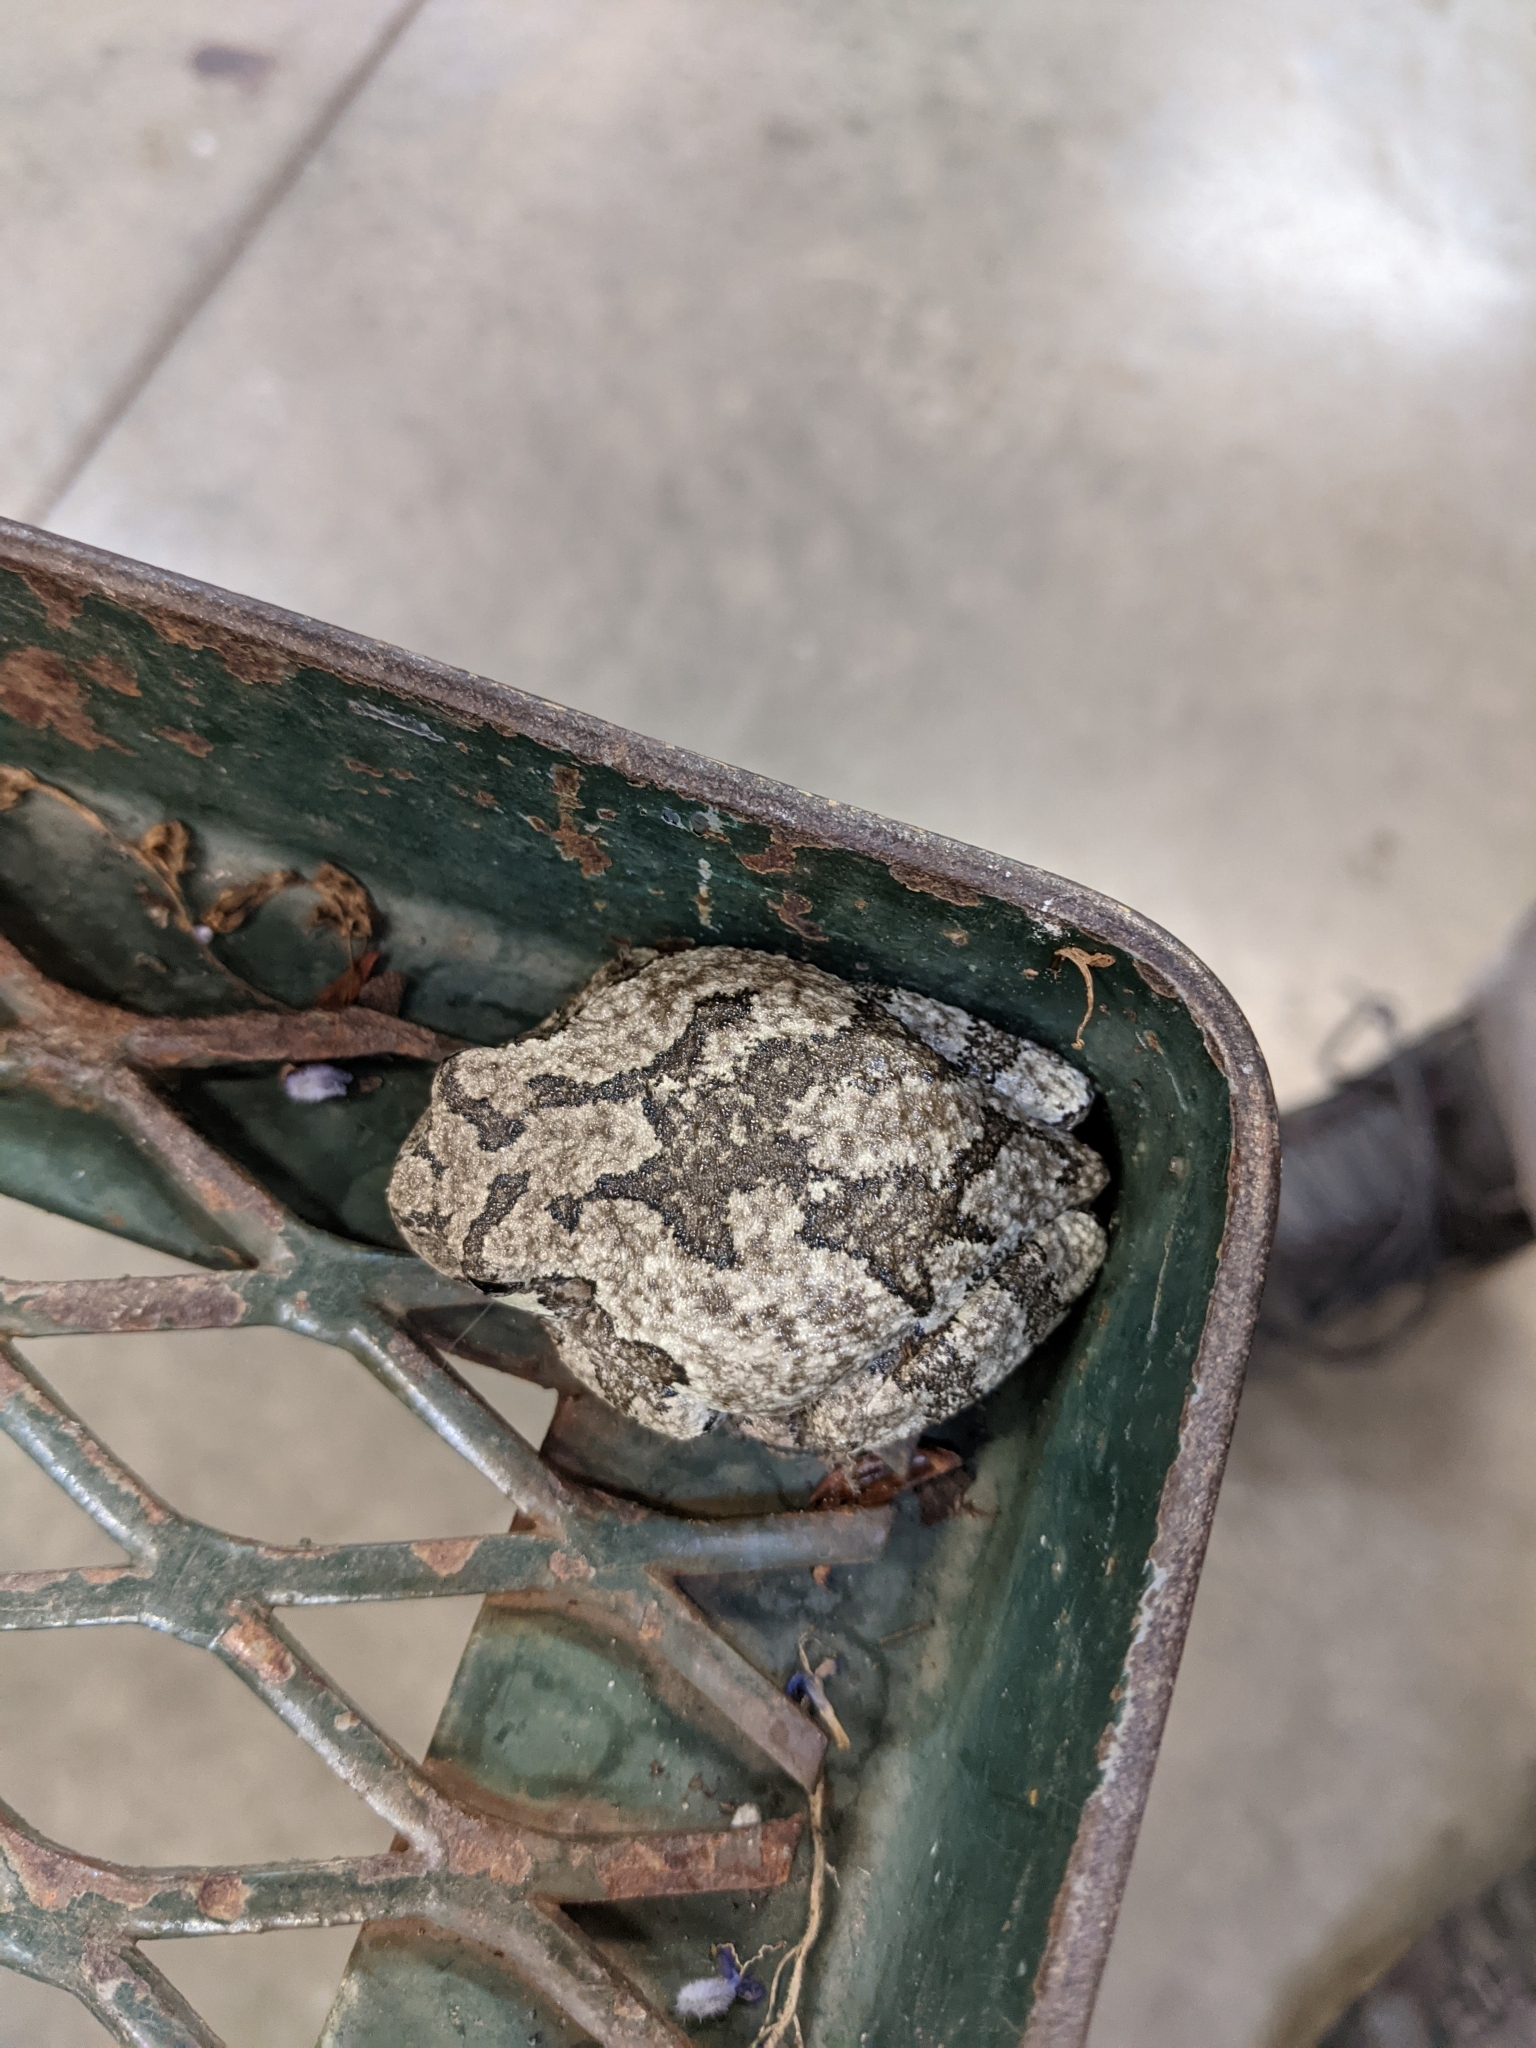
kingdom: Animalia
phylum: Chordata
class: Amphibia
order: Anura
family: Hylidae
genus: Dryophytes
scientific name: Dryophytes versicolor
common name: Gray treefrog
